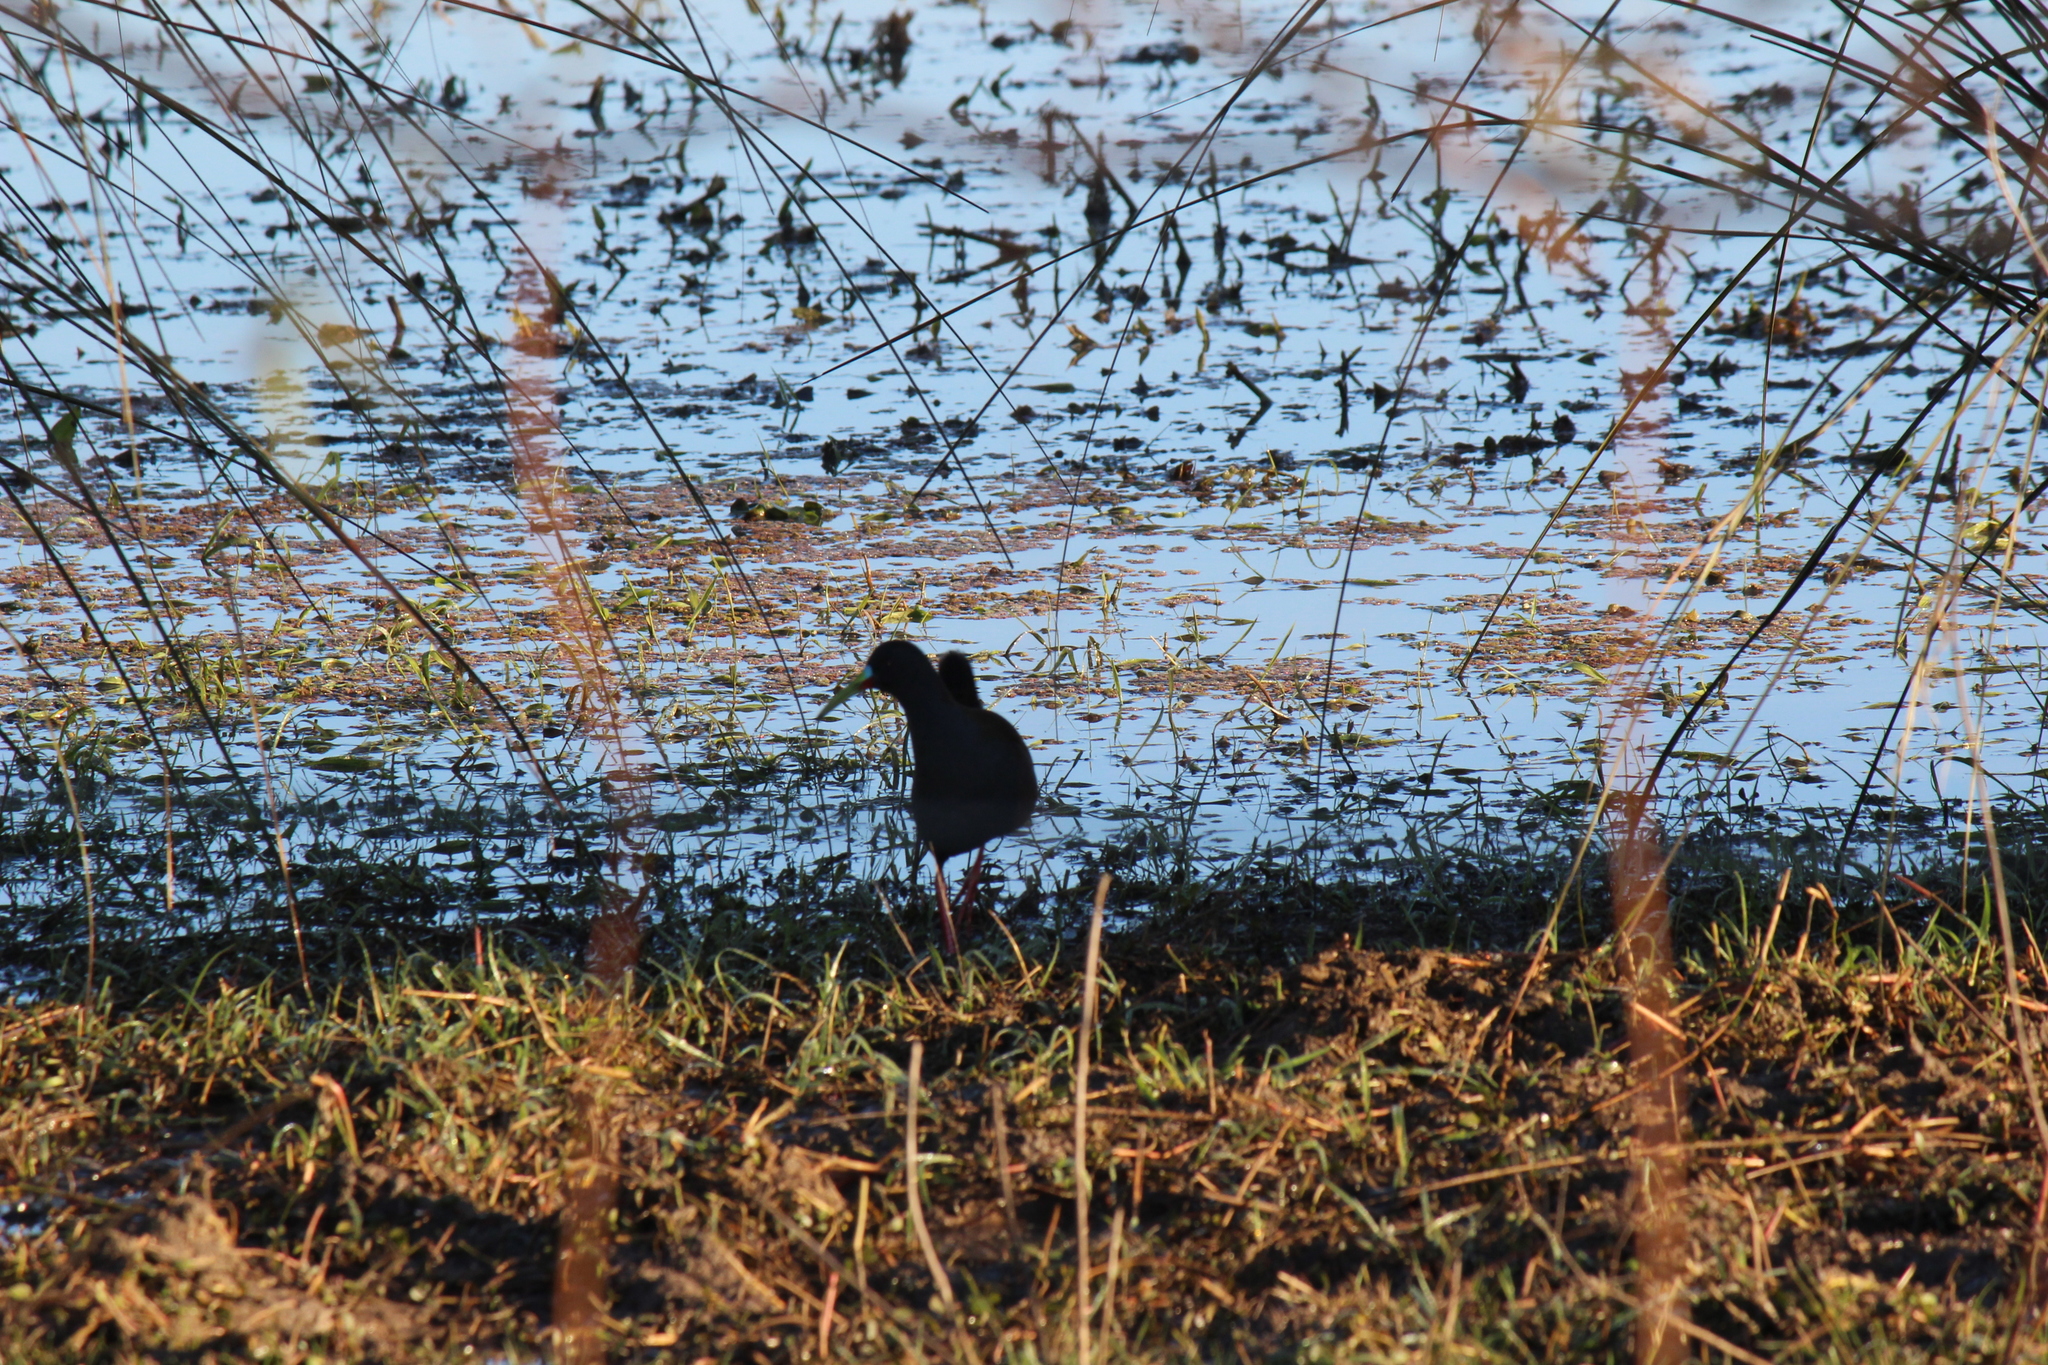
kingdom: Animalia
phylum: Chordata
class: Aves
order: Gruiformes
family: Rallidae
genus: Pardirallus
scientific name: Pardirallus sanguinolentus
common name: Plumbeous rail
